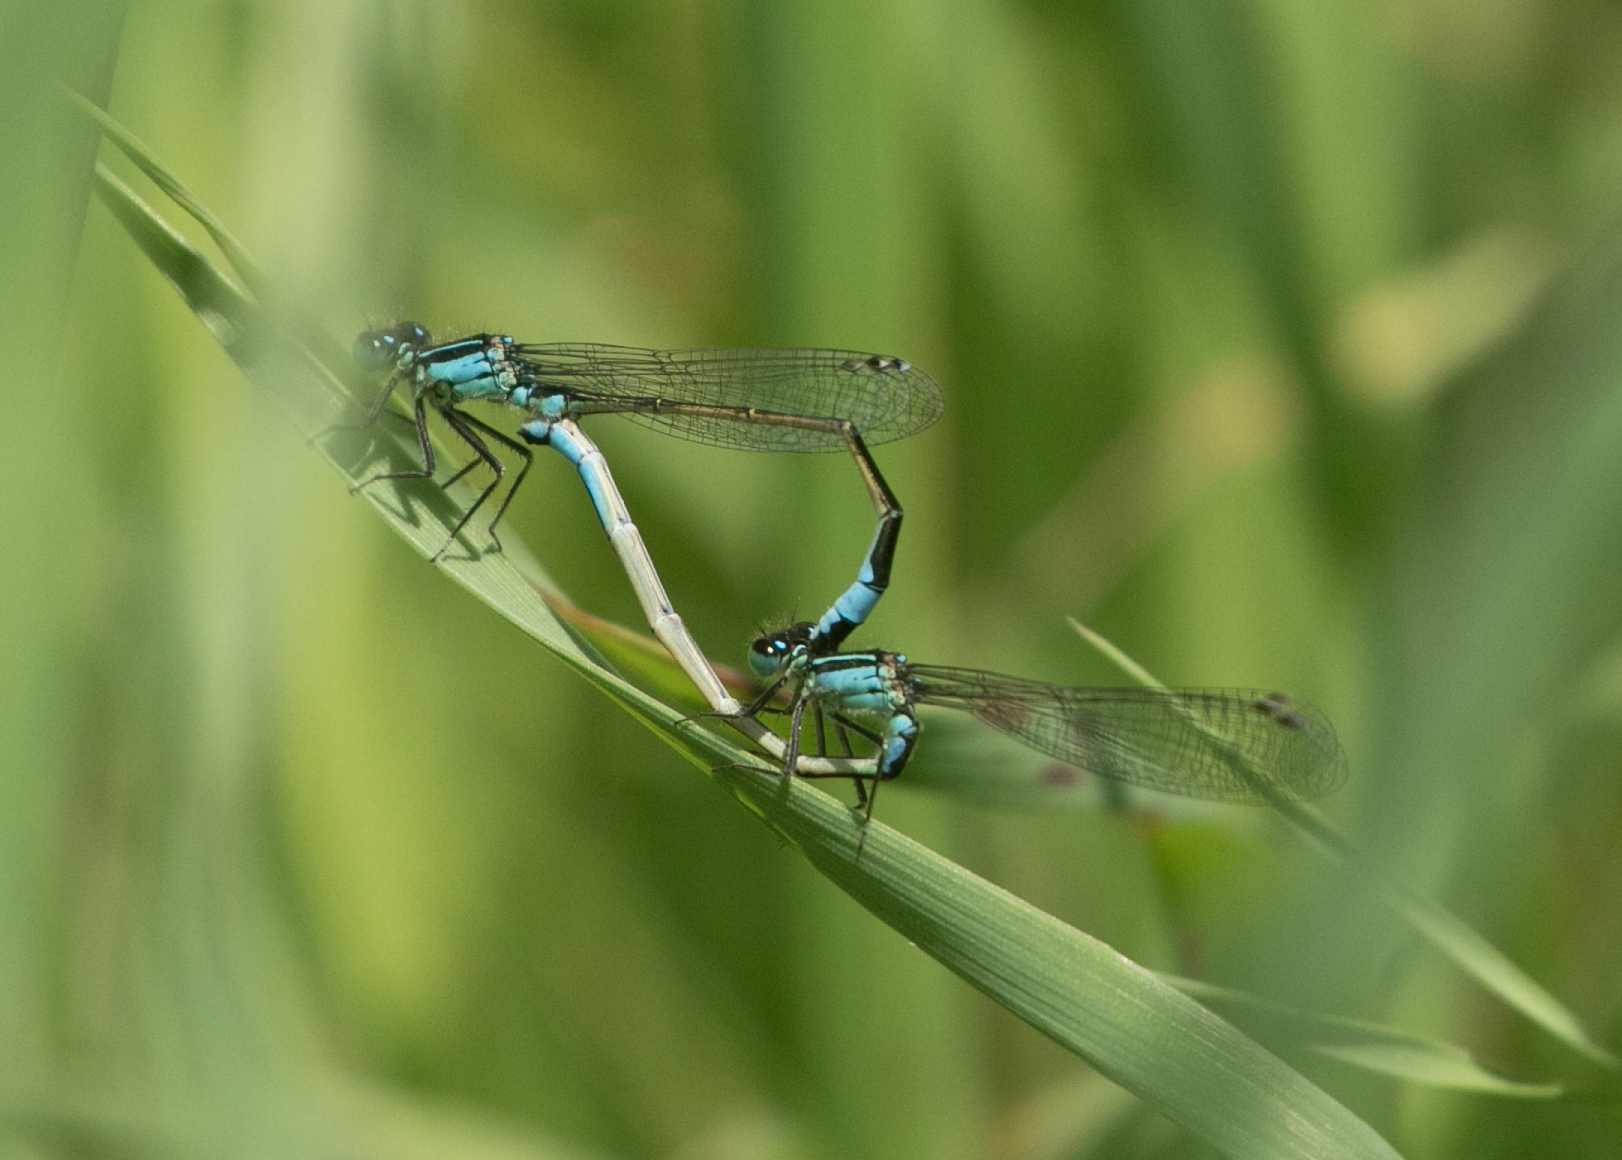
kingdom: Animalia
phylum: Arthropoda
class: Insecta
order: Odonata
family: Coenagrionidae
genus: Ischnura
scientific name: Ischnura elegans
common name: Blue-tailed damselfly
